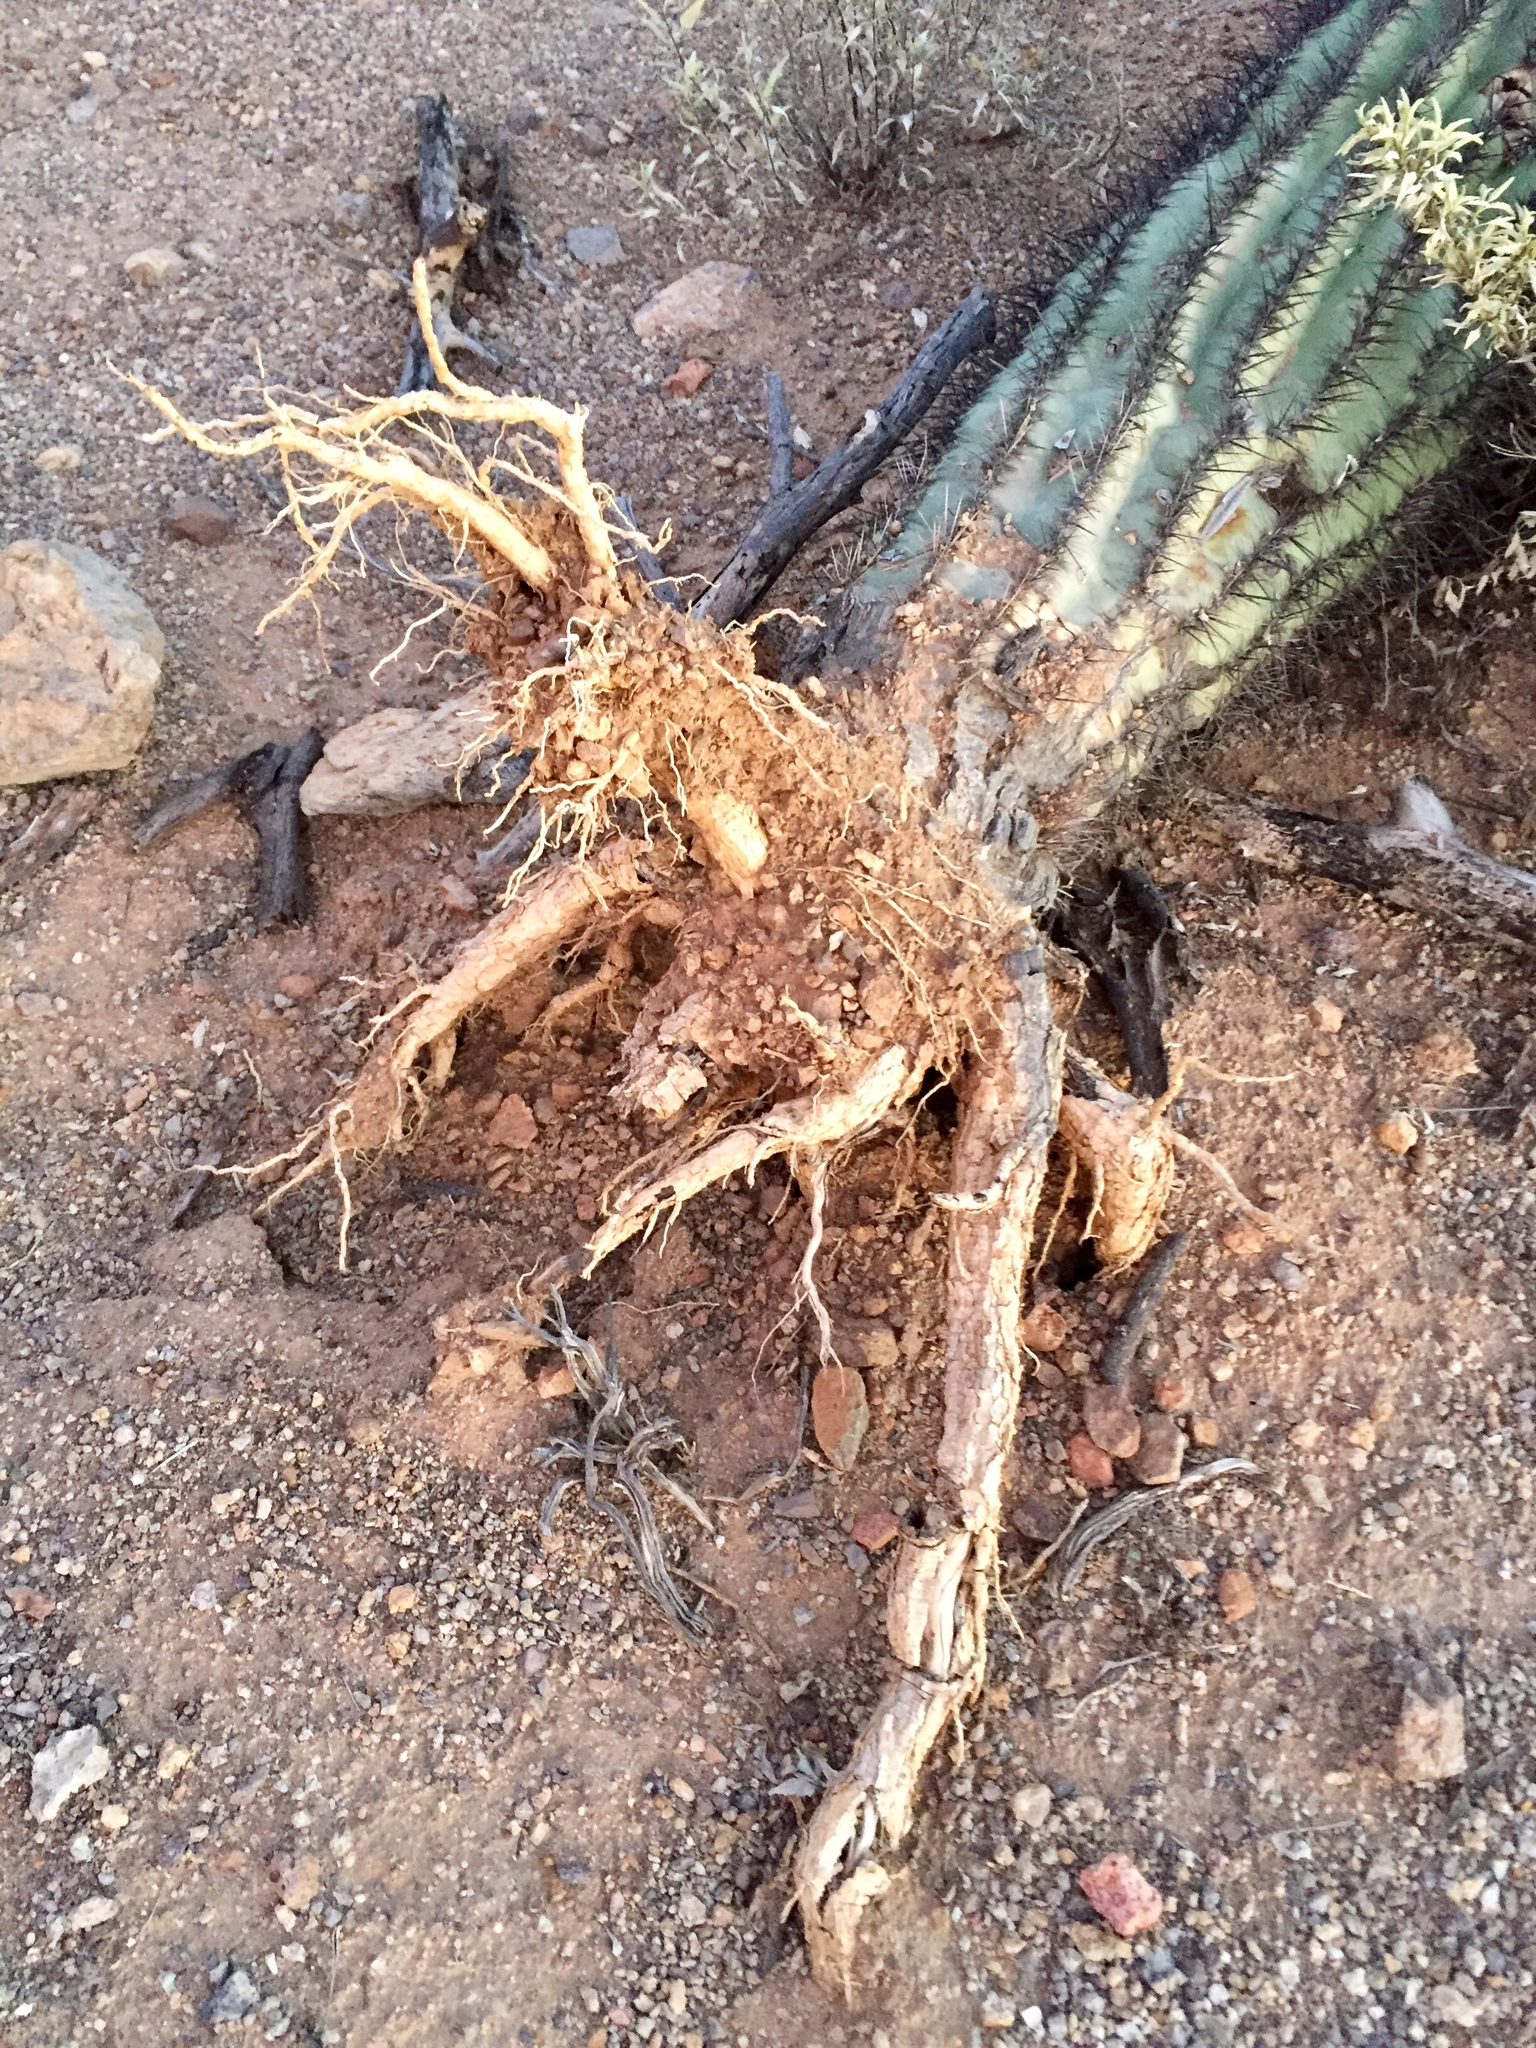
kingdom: Plantae
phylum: Tracheophyta
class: Magnoliopsida
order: Caryophyllales
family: Cactaceae
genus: Carnegiea
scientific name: Carnegiea gigantea
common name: Saguaro
